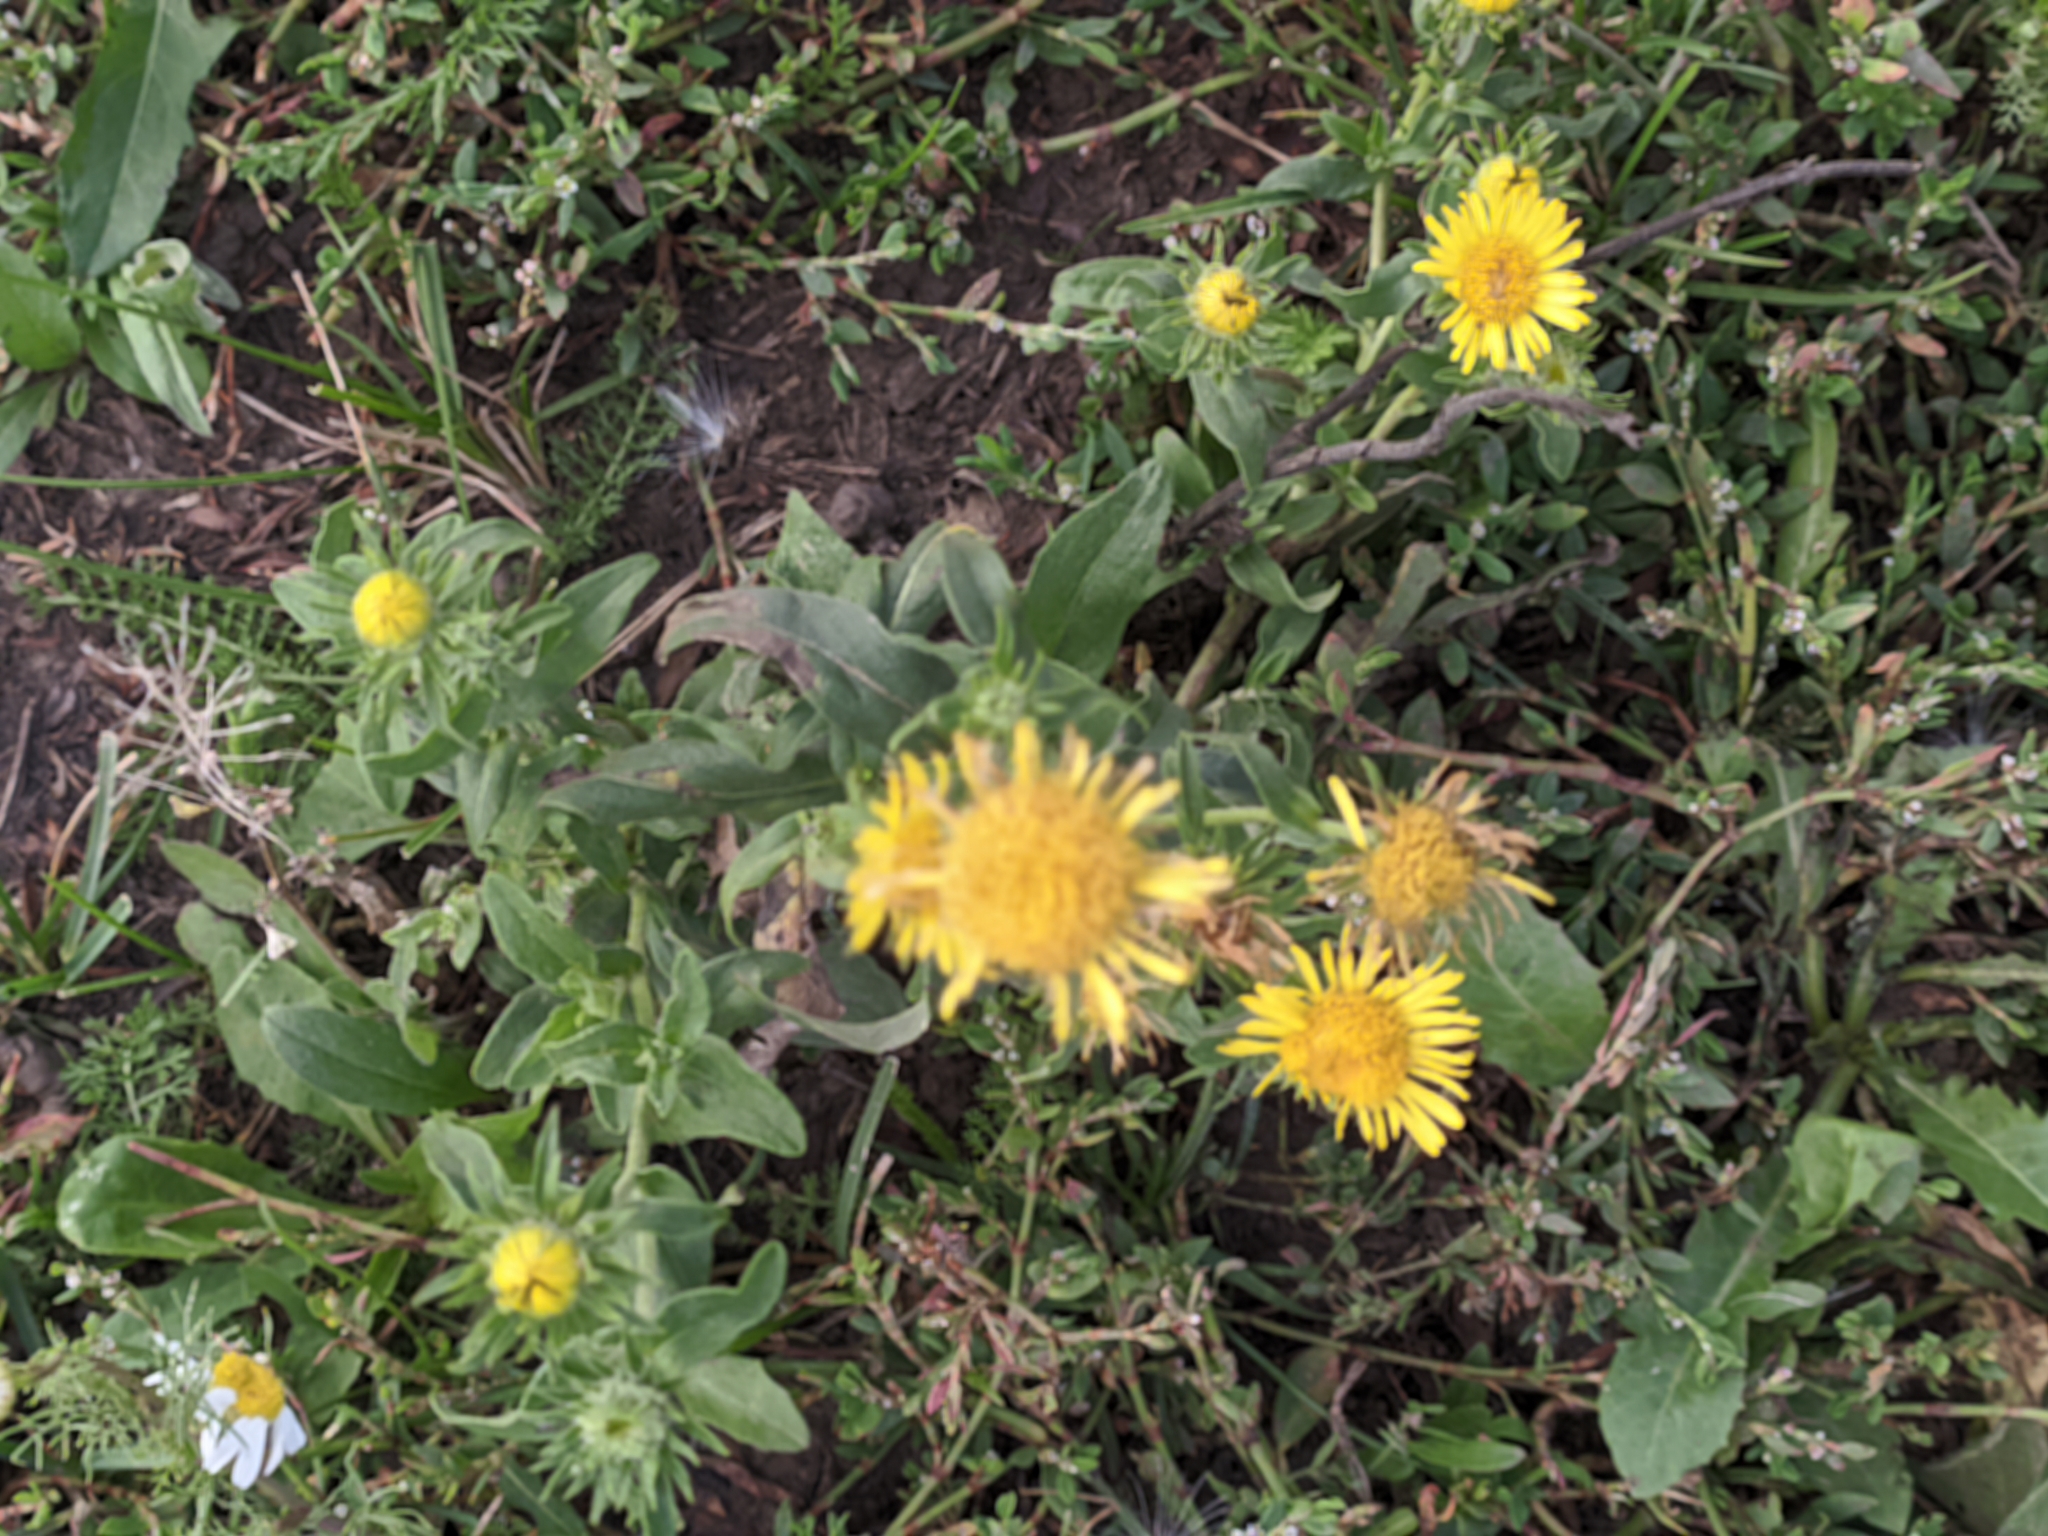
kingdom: Plantae
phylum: Tracheophyta
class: Magnoliopsida
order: Asterales
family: Asteraceae
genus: Pentanema
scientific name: Pentanema britannicum
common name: British elecampane
